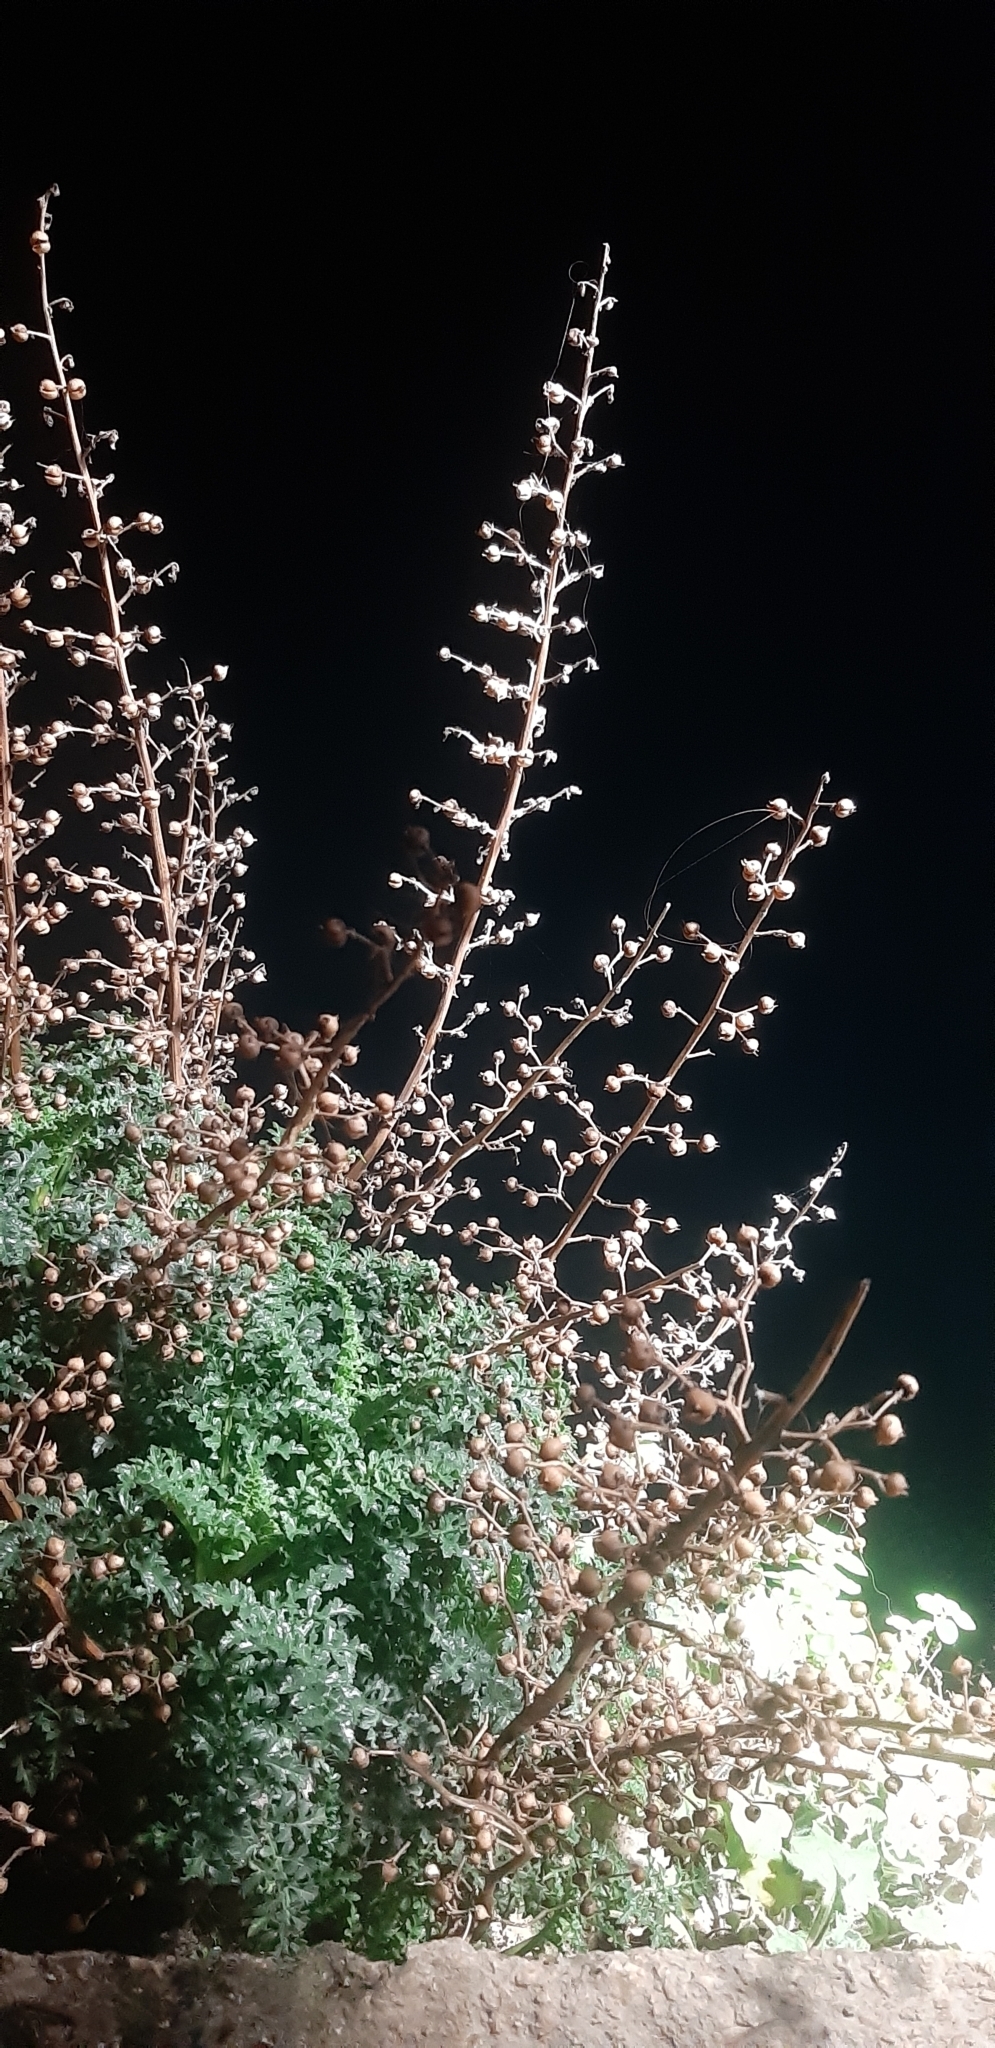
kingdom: Plantae
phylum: Tracheophyta
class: Magnoliopsida
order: Lamiales
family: Scrophulariaceae
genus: Scrophularia
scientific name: Scrophularia lucida
